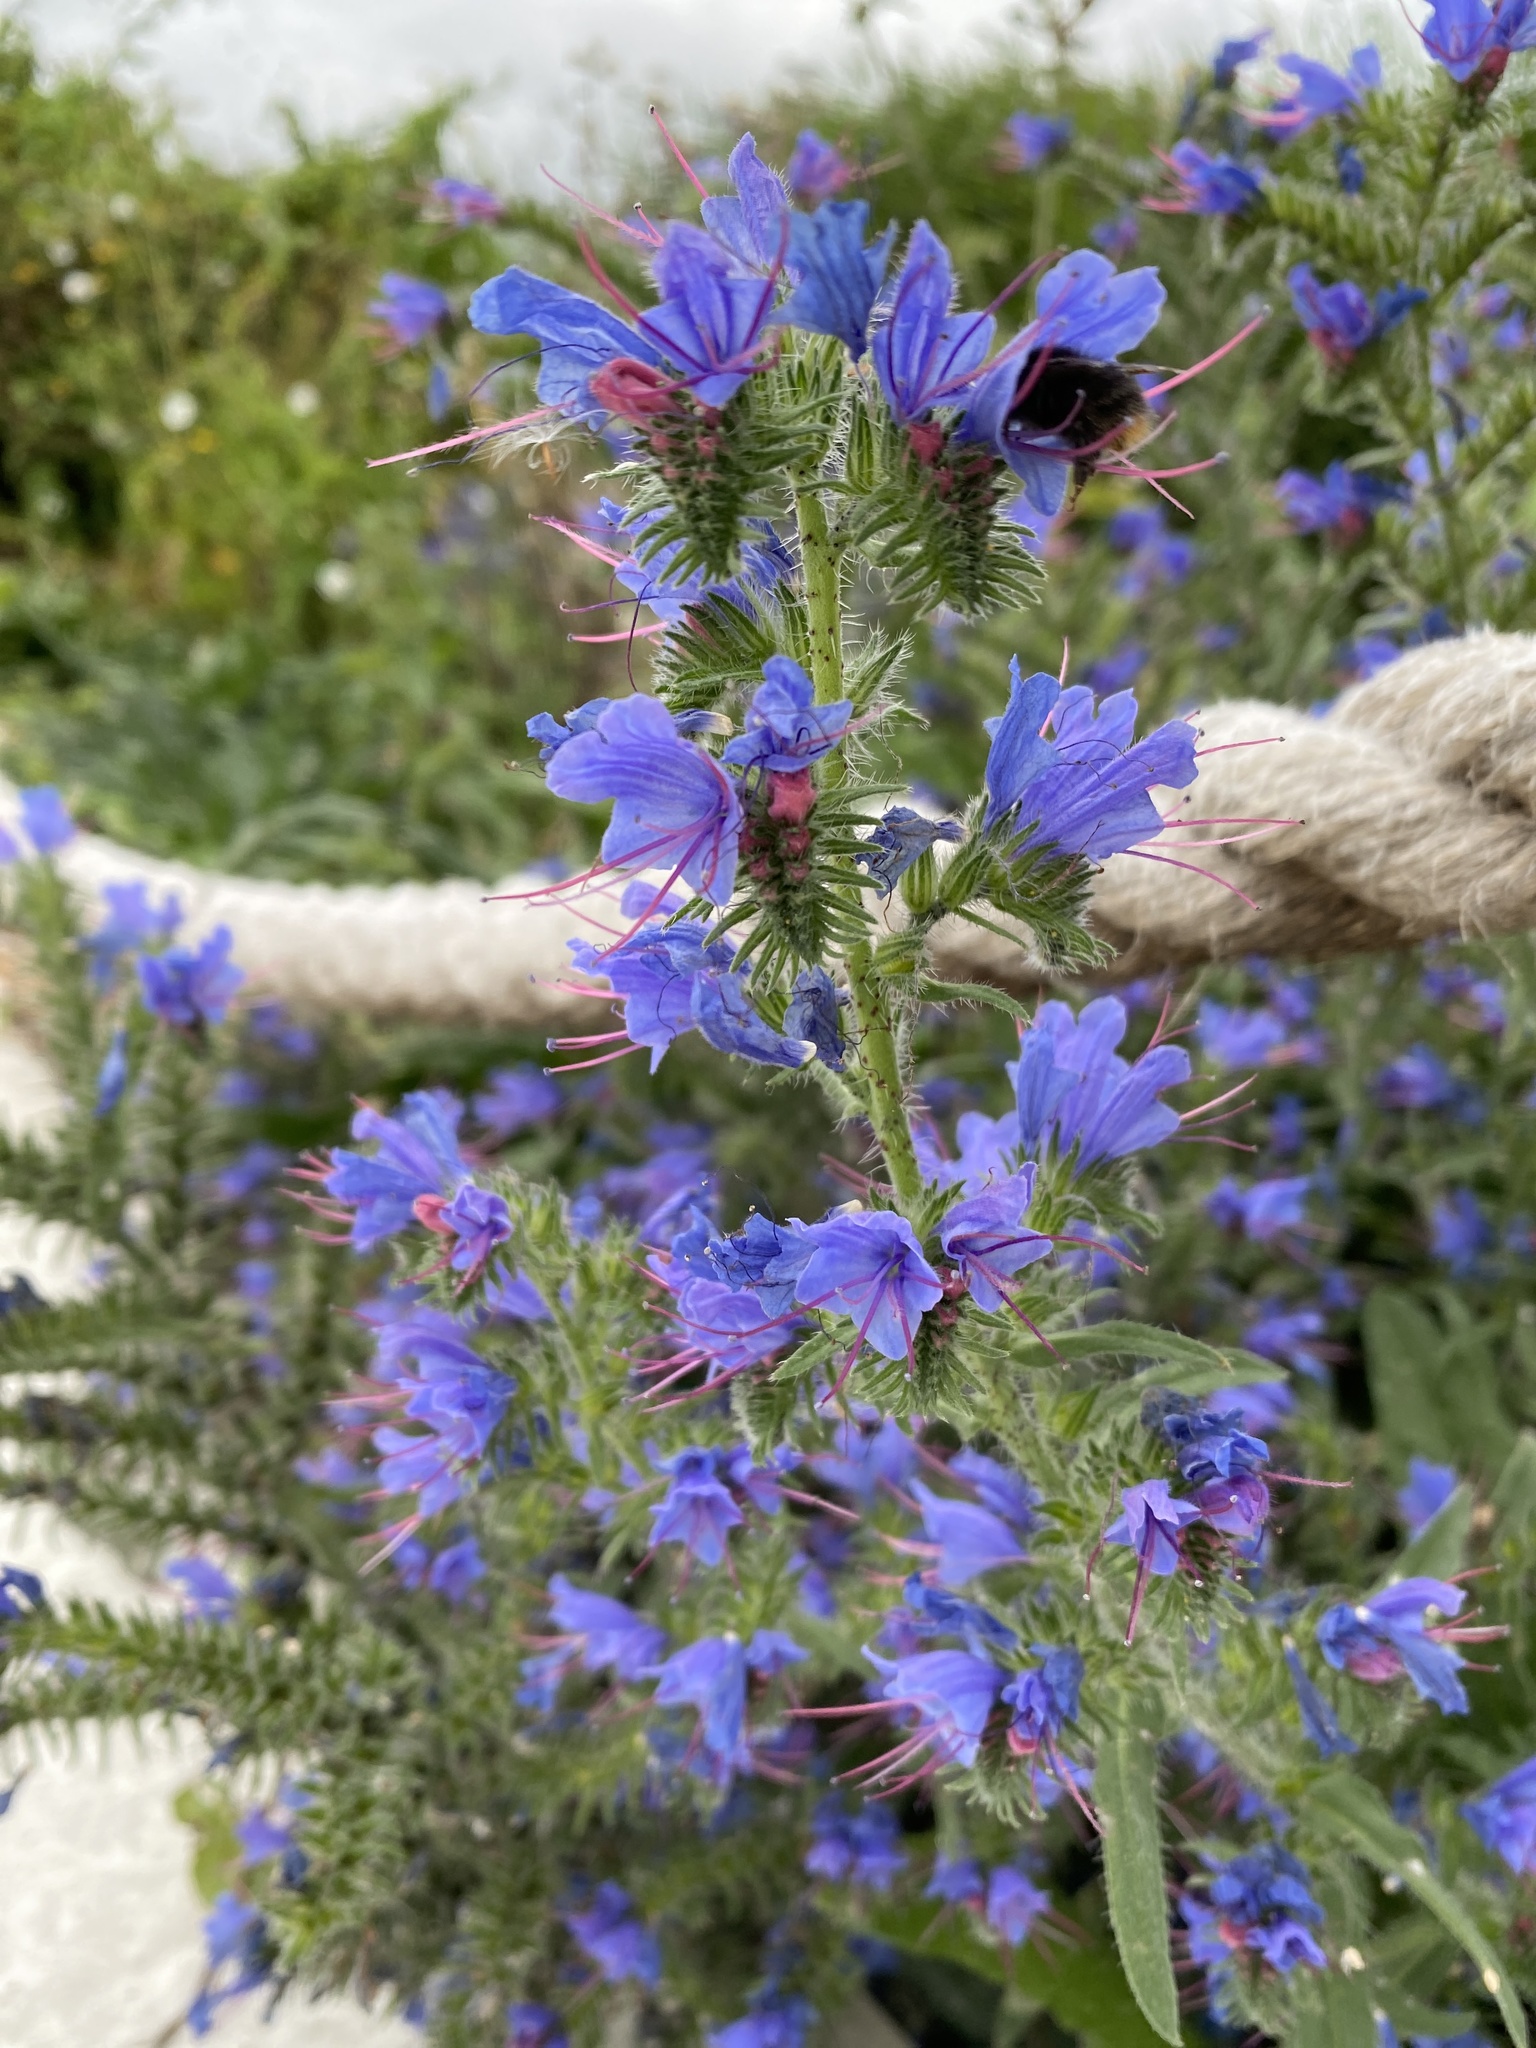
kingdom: Plantae
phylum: Tracheophyta
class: Magnoliopsida
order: Boraginales
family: Boraginaceae
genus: Echium
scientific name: Echium vulgare
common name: Common viper's bugloss
